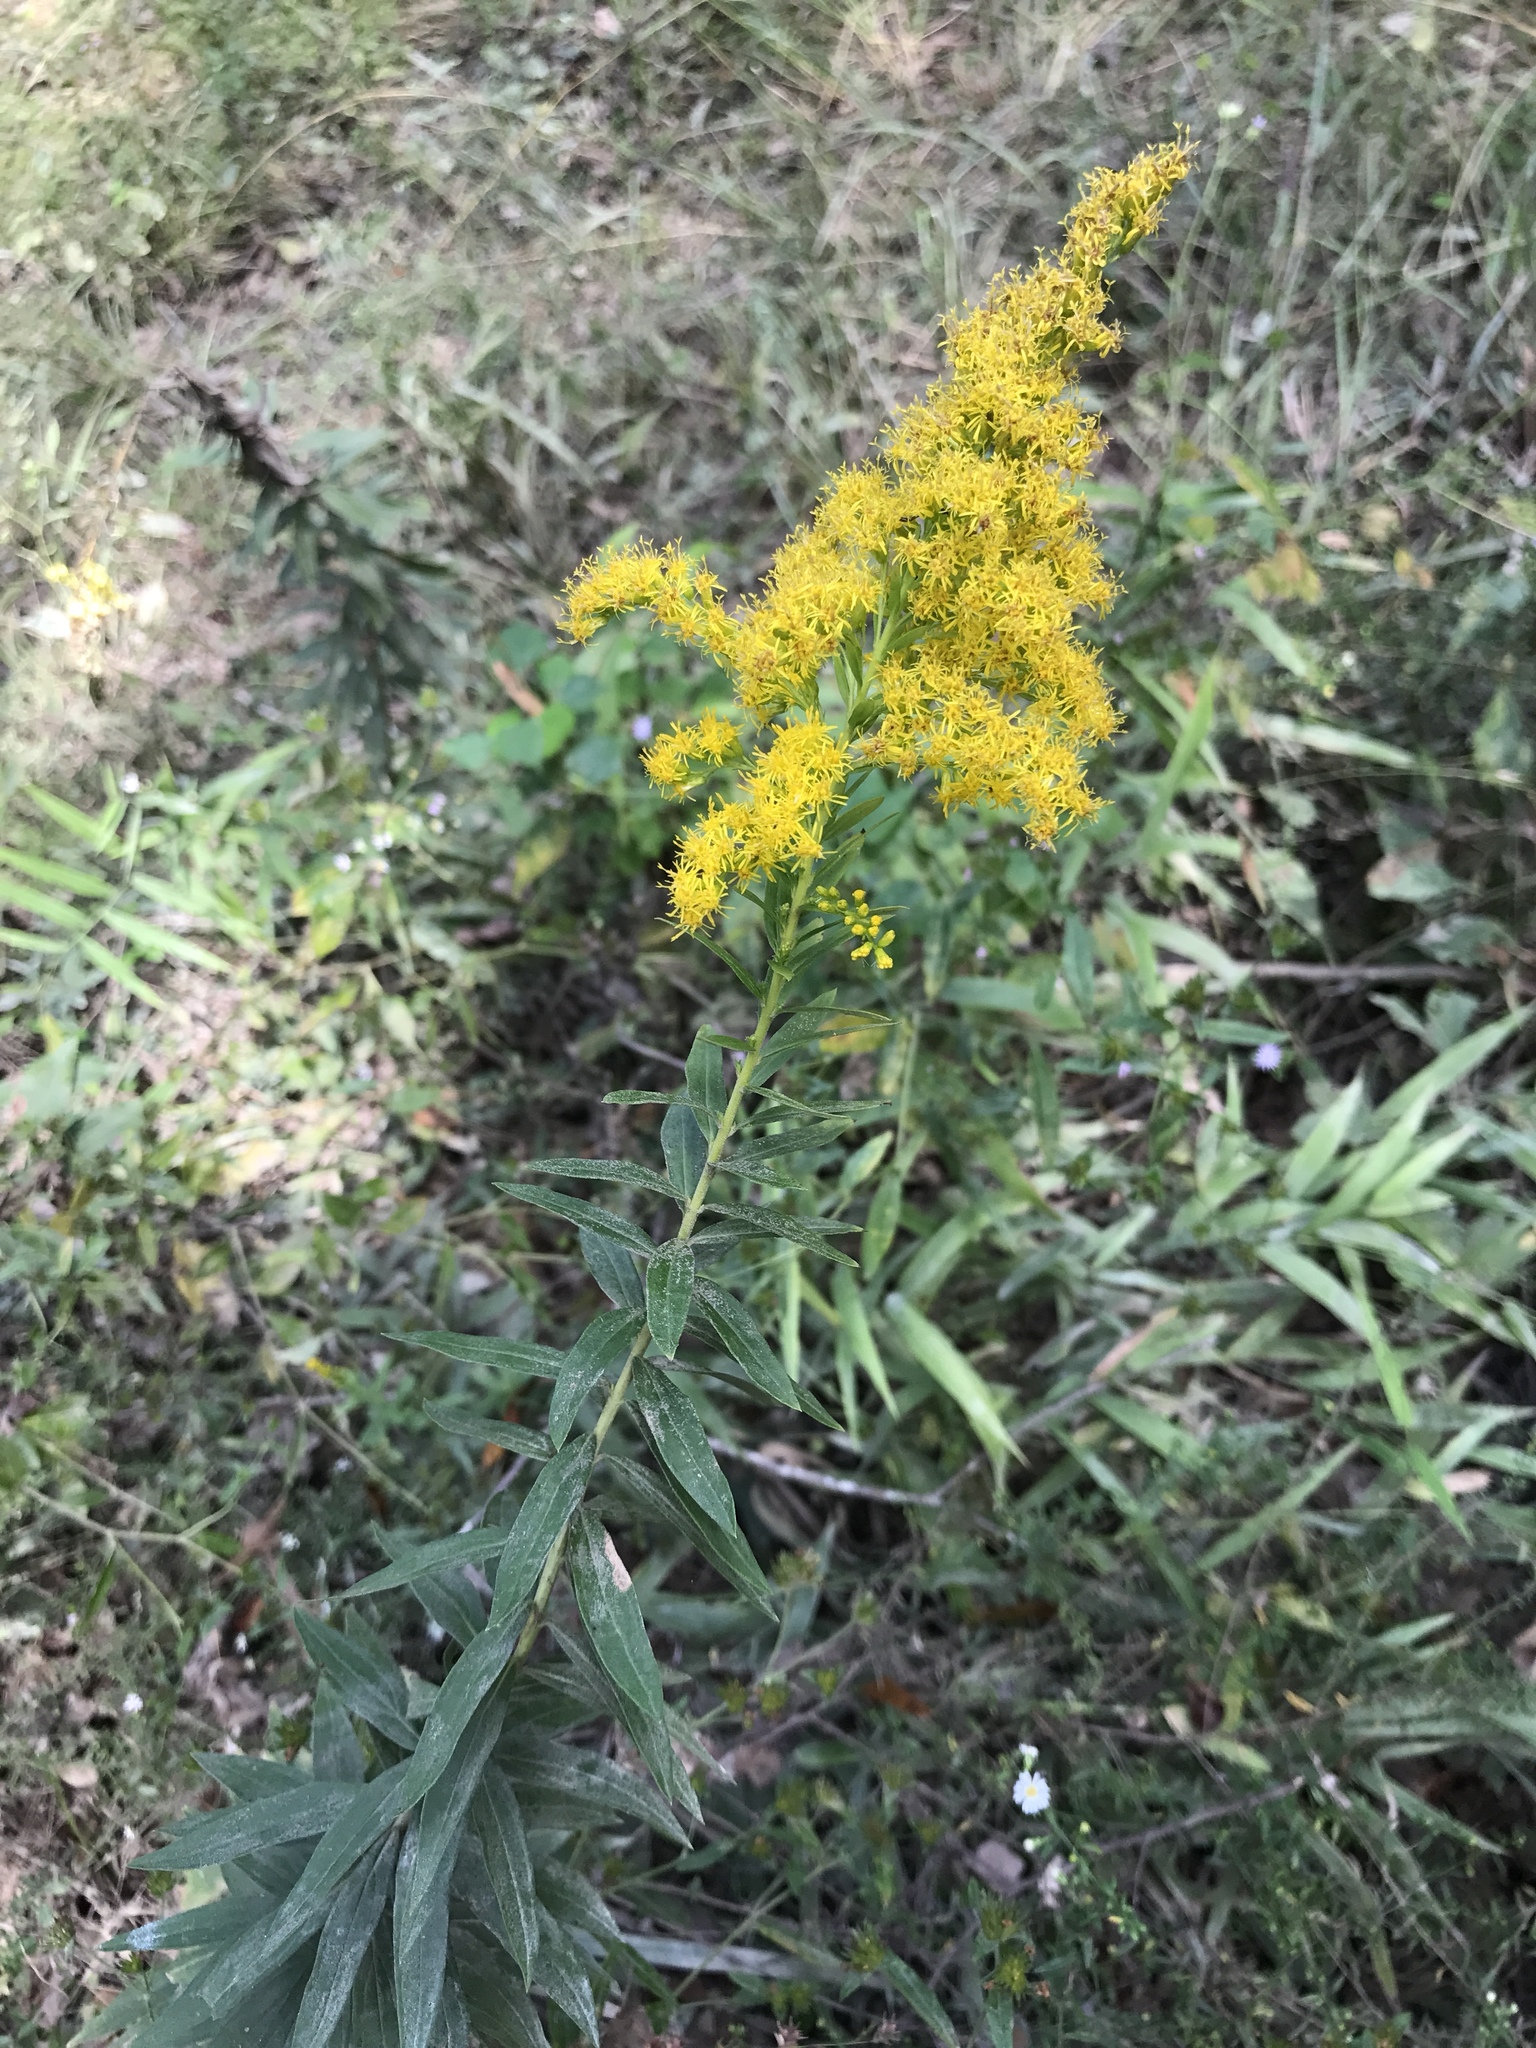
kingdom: Plantae
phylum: Tracheophyta
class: Magnoliopsida
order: Asterales
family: Asteraceae
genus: Solidago
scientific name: Solidago odora
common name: Anise-scented goldenrod
